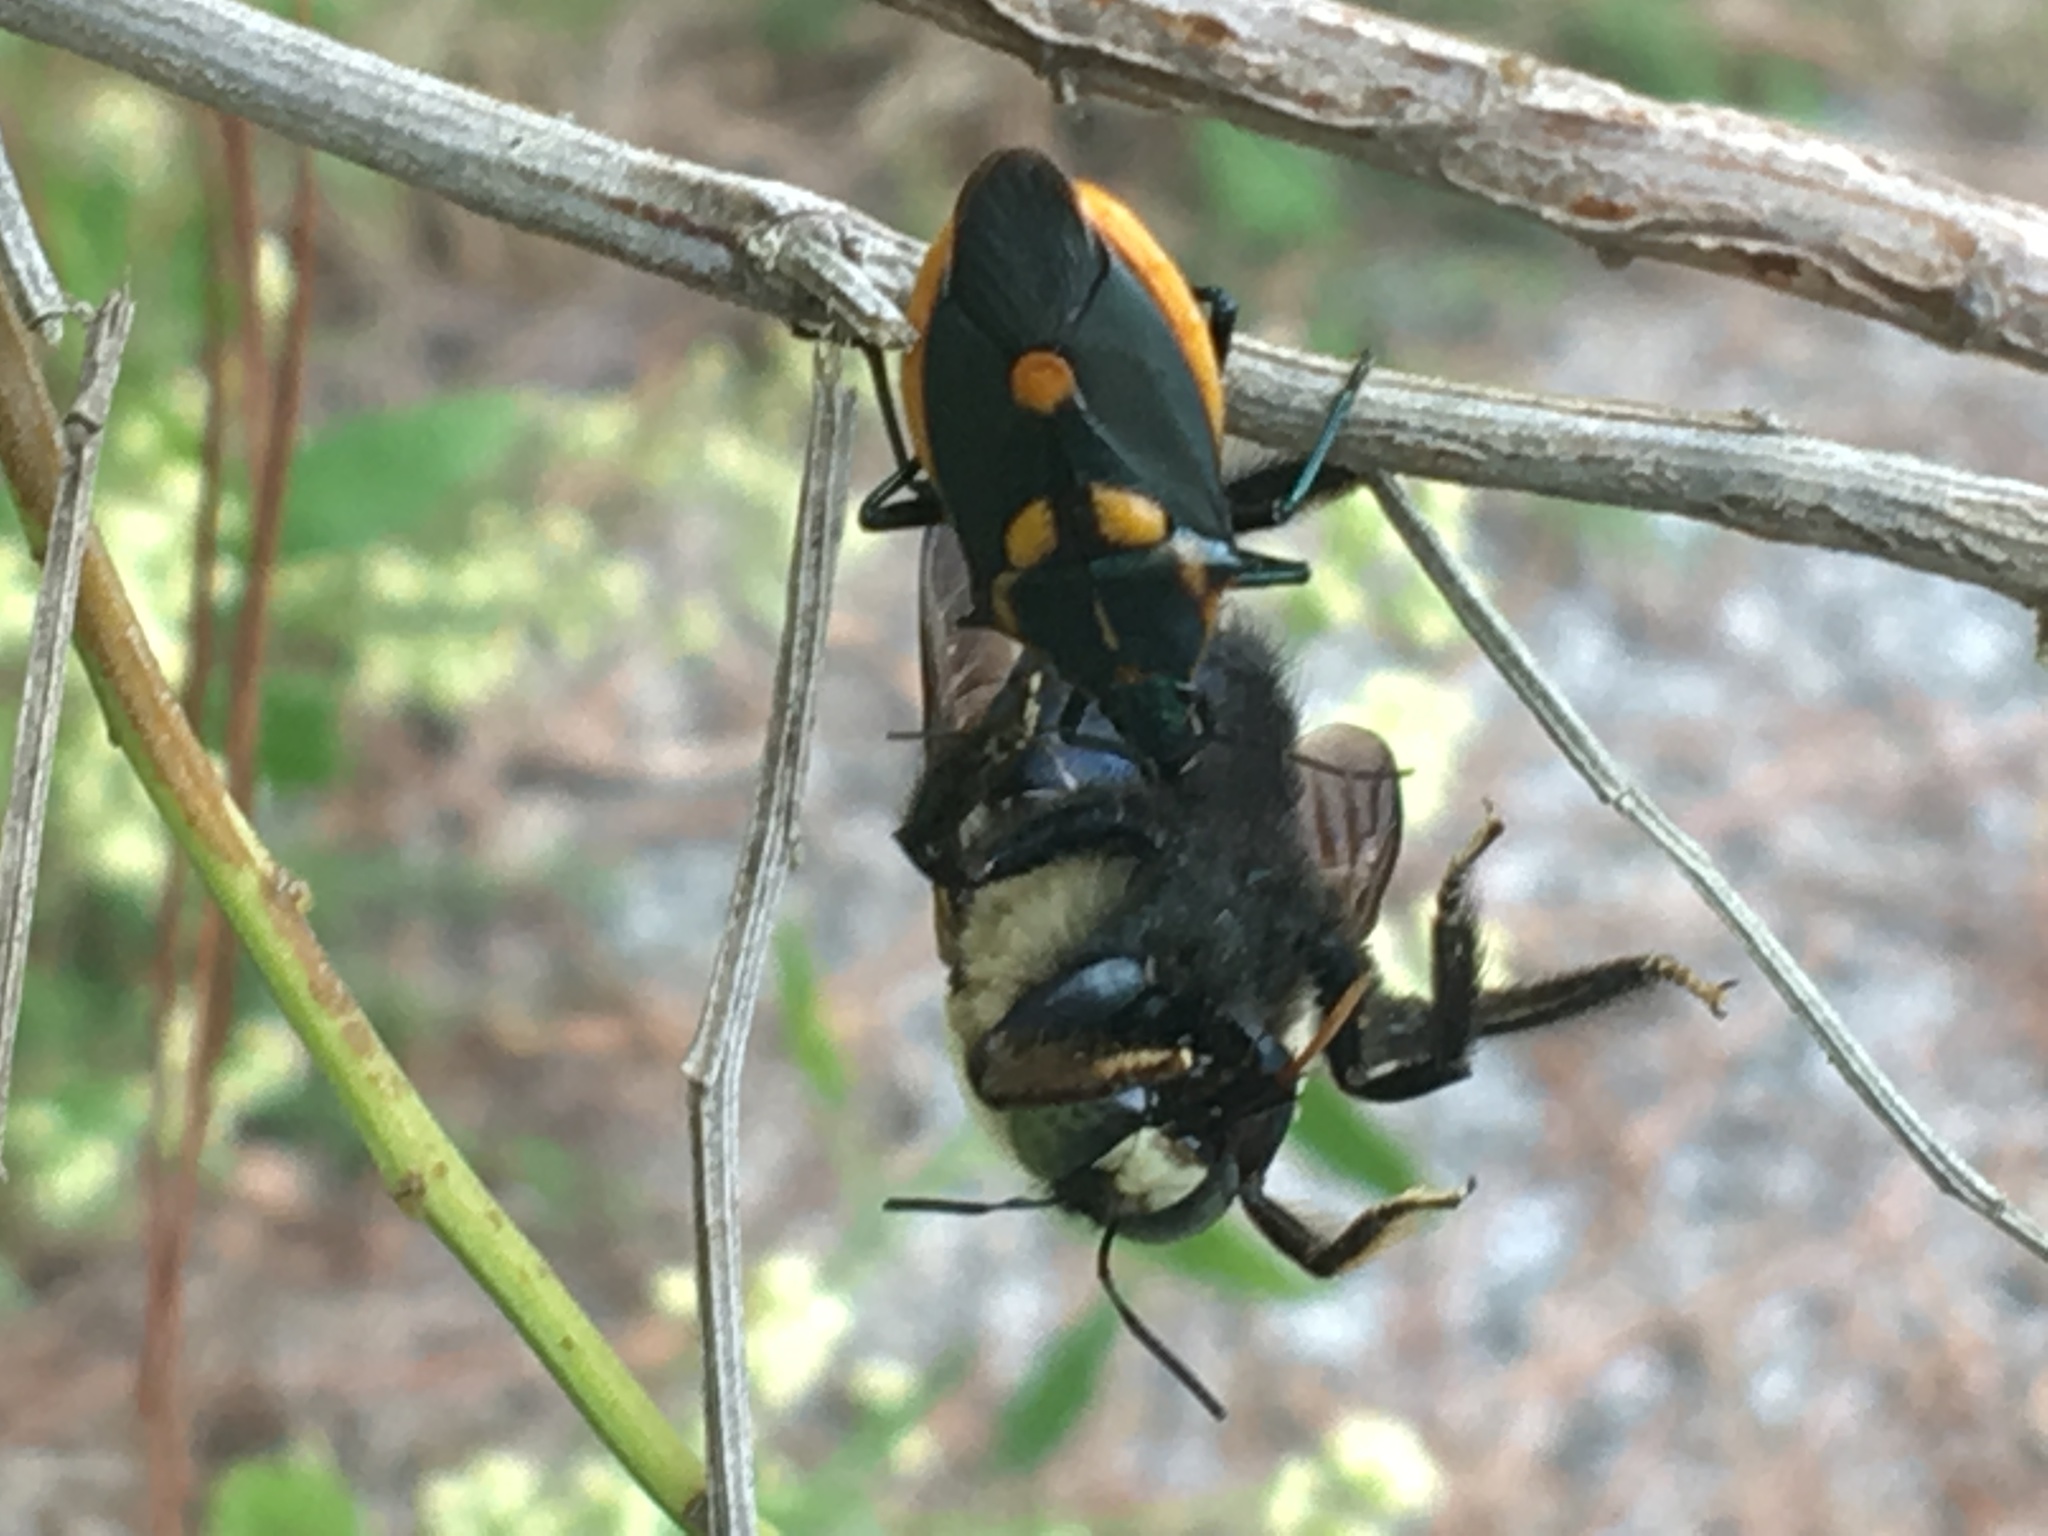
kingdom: Animalia
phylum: Arthropoda
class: Insecta
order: Hemiptera
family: Pentatomidae
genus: Euthyrhynchus
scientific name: Euthyrhynchus floridanus
